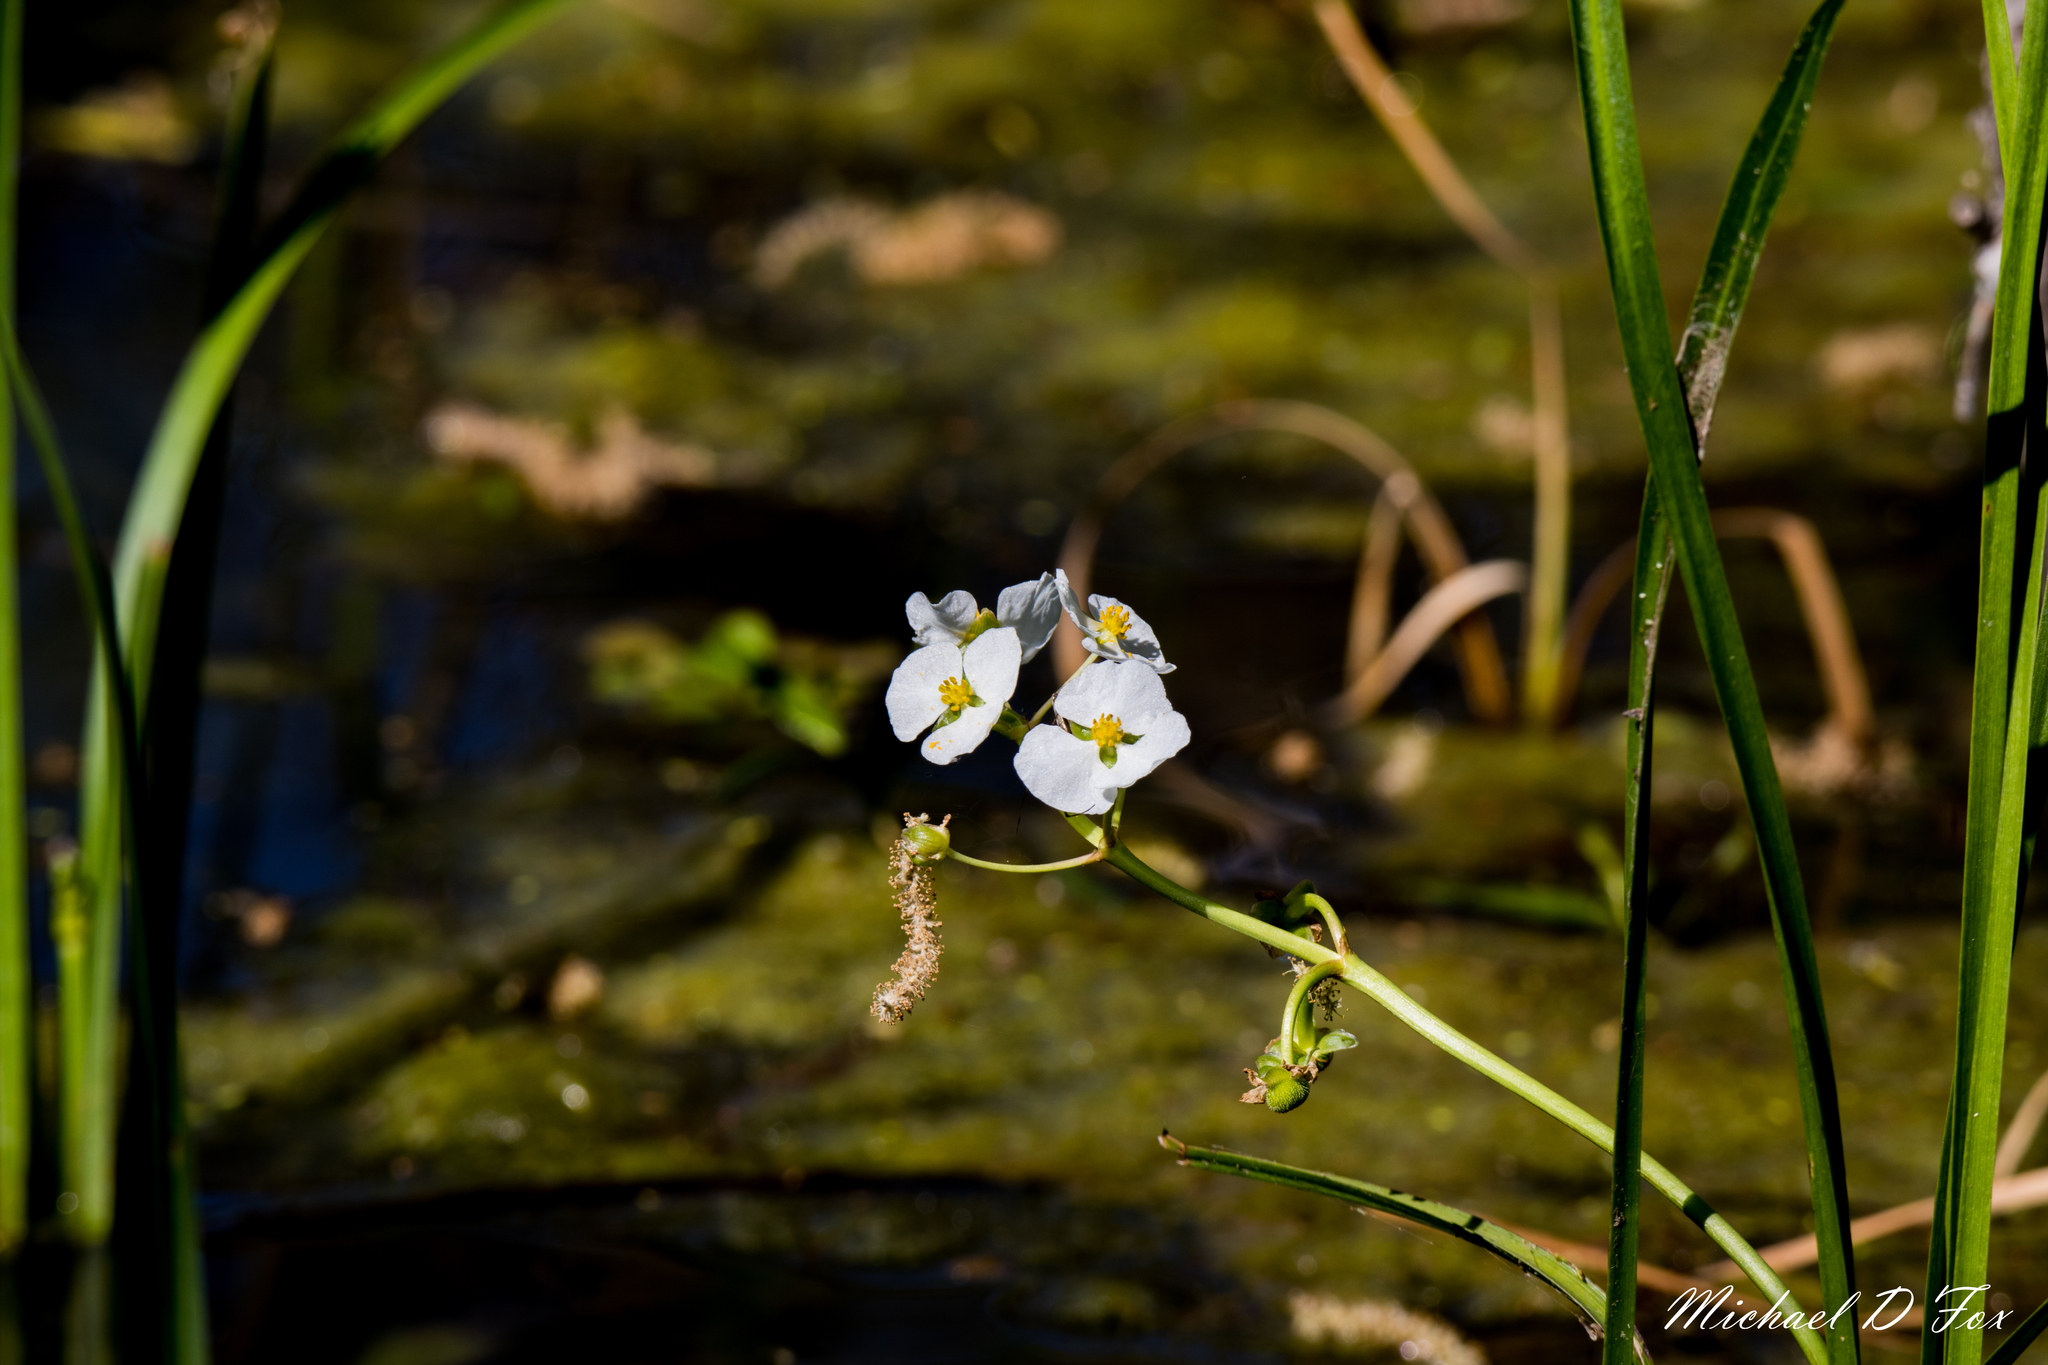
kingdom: Plantae
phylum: Tracheophyta
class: Liliopsida
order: Alismatales
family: Alismataceae
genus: Sagittaria
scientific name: Sagittaria platyphylla
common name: Broad-leaf arrowhead
